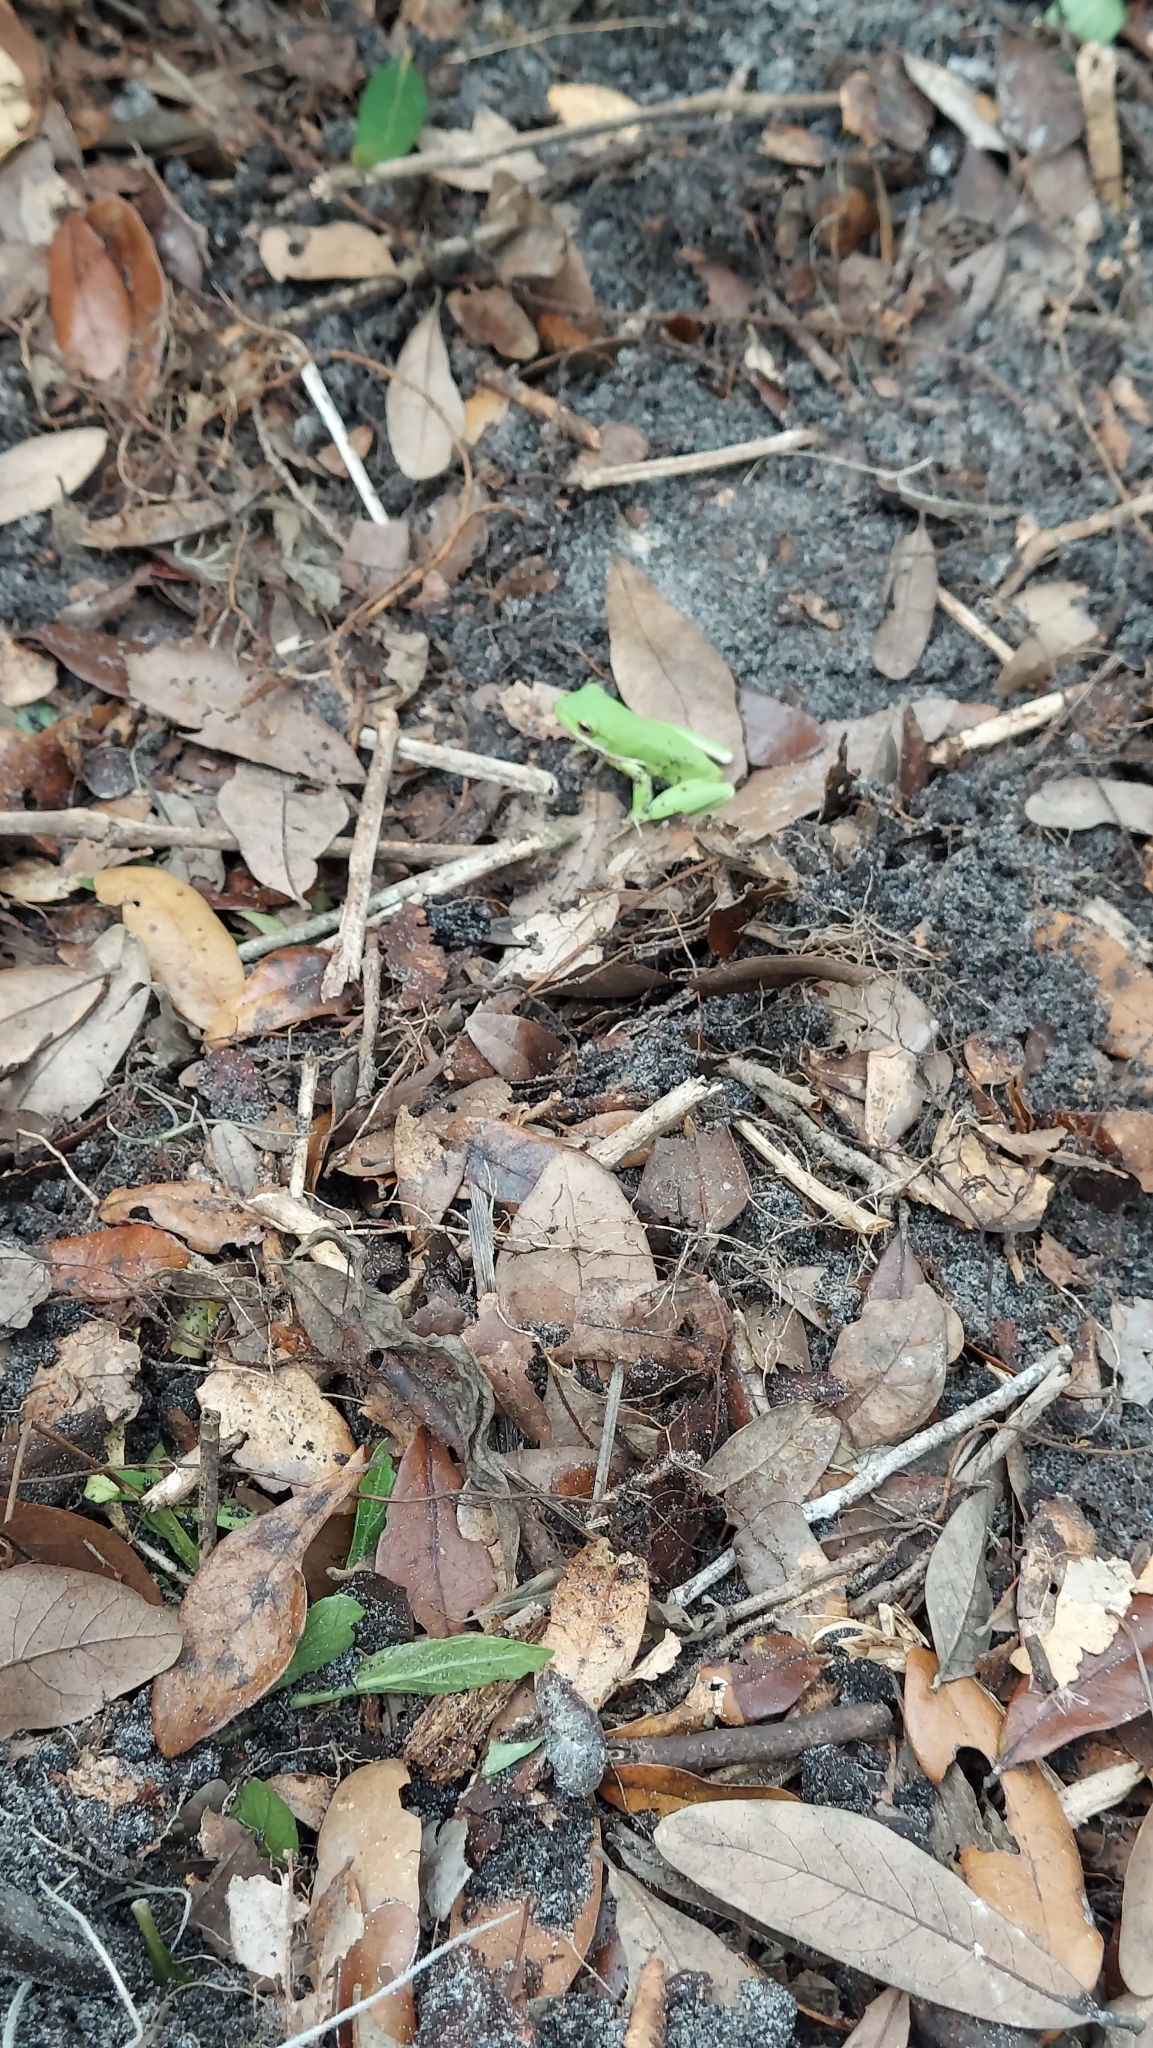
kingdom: Animalia
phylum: Chordata
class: Amphibia
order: Anura
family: Hylidae
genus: Dryophytes
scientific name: Dryophytes cinereus
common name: Green treefrog
